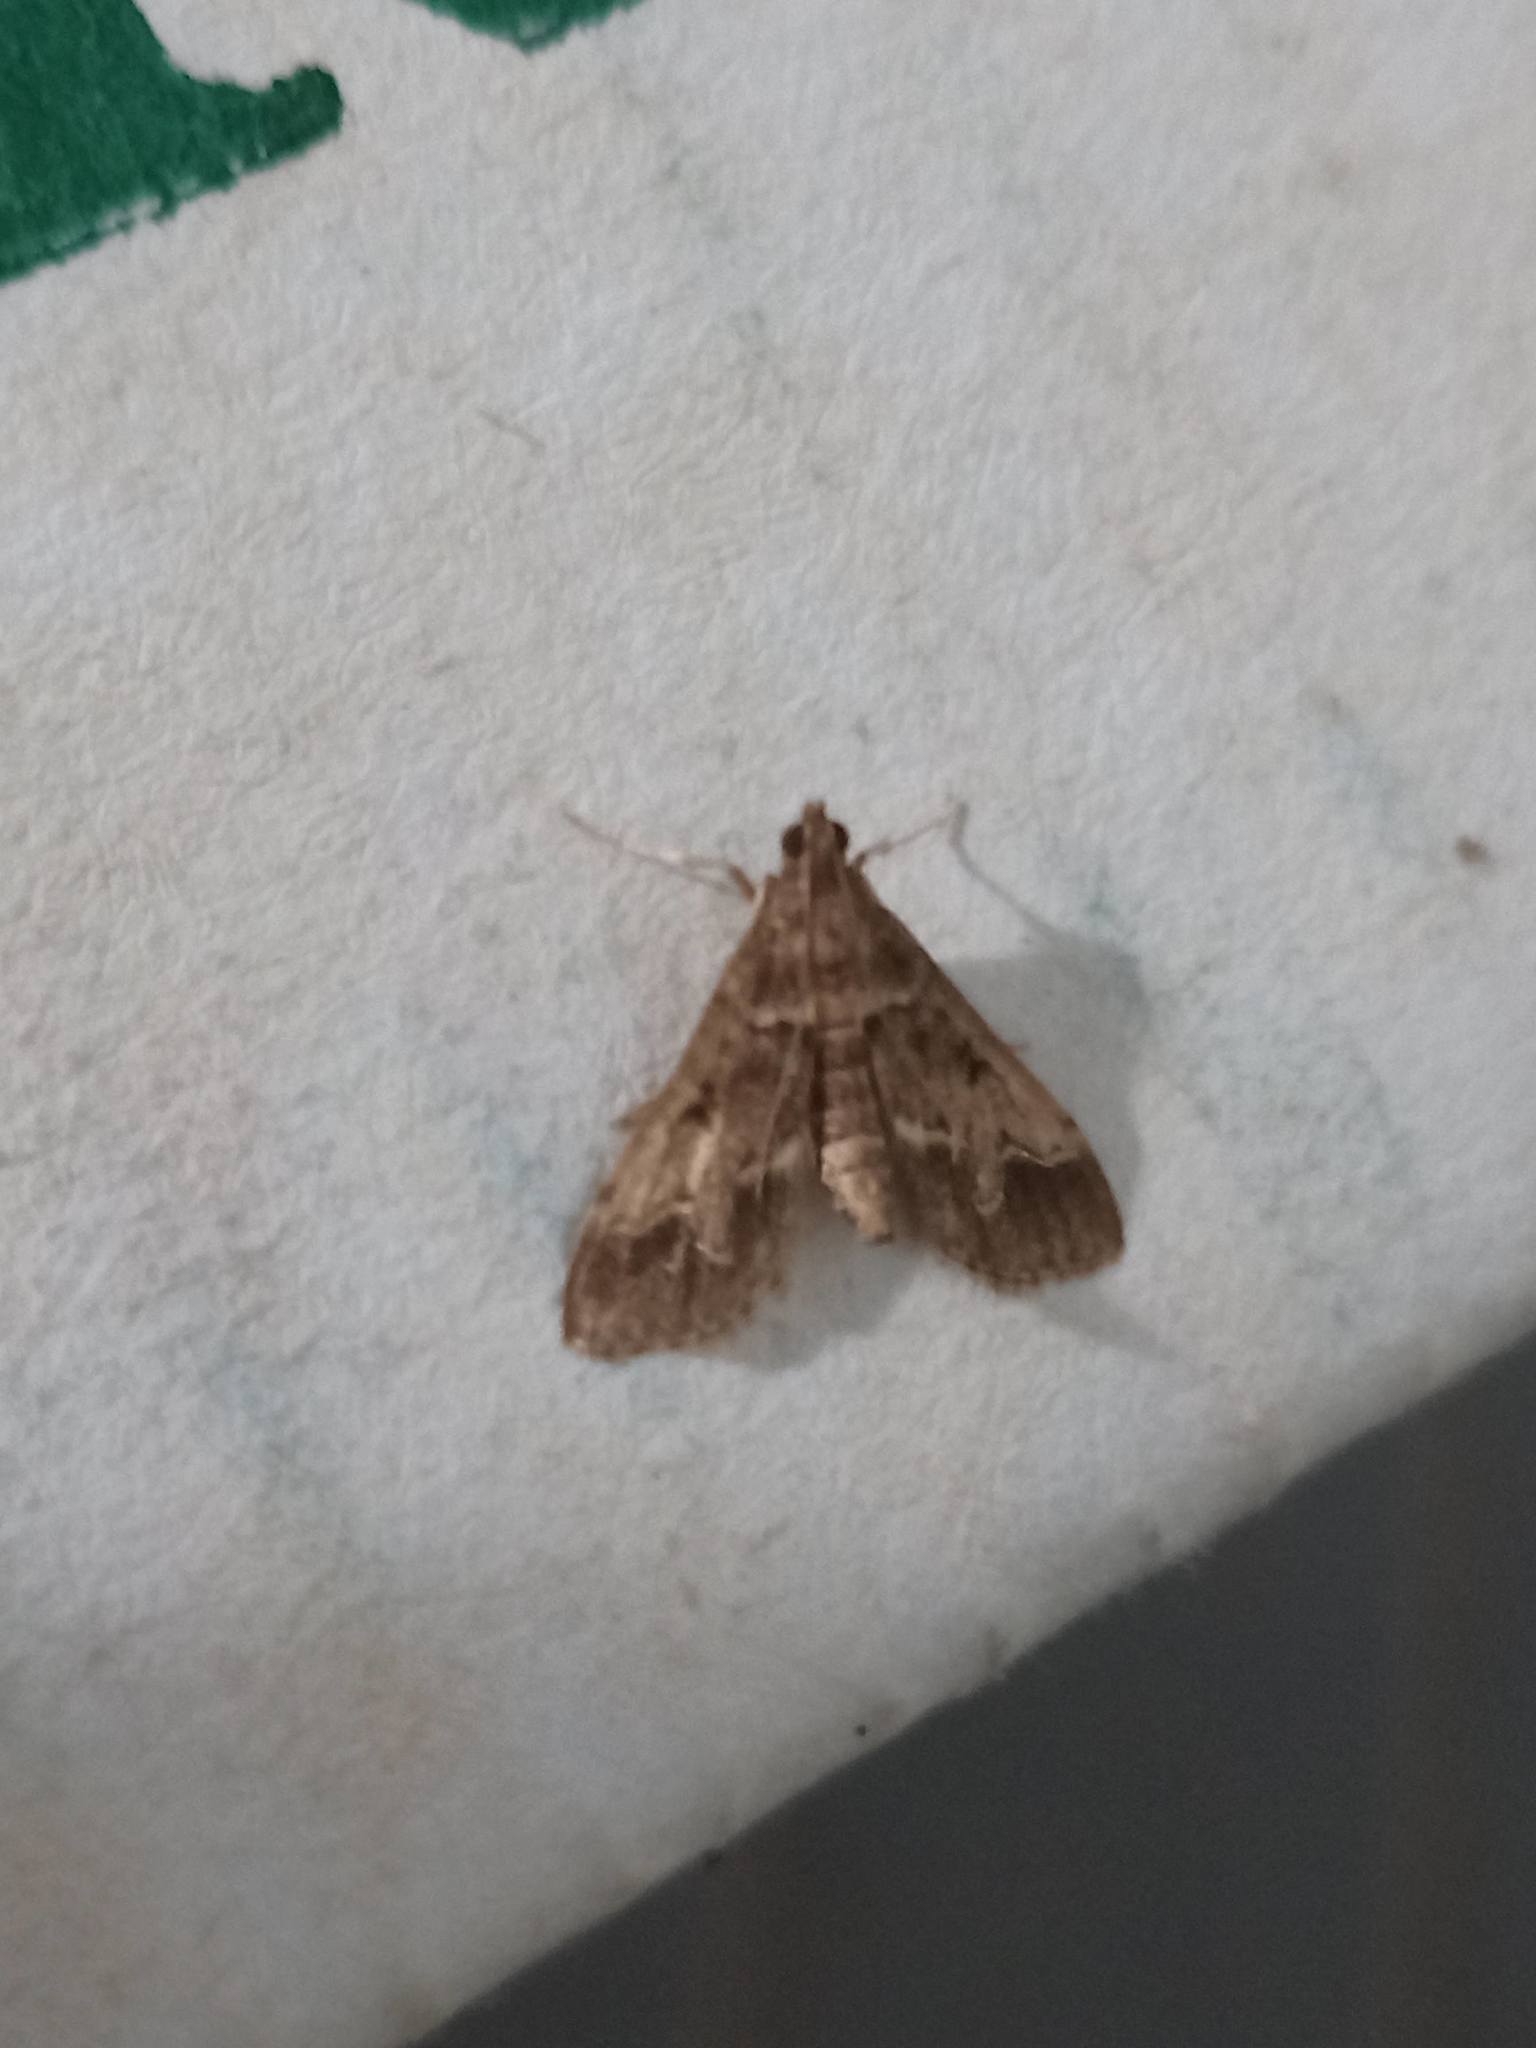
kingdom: Animalia
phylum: Arthropoda
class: Insecta
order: Lepidoptera
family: Crambidae
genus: Duponchelia
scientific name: Duponchelia fovealis
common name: Crambid moth
